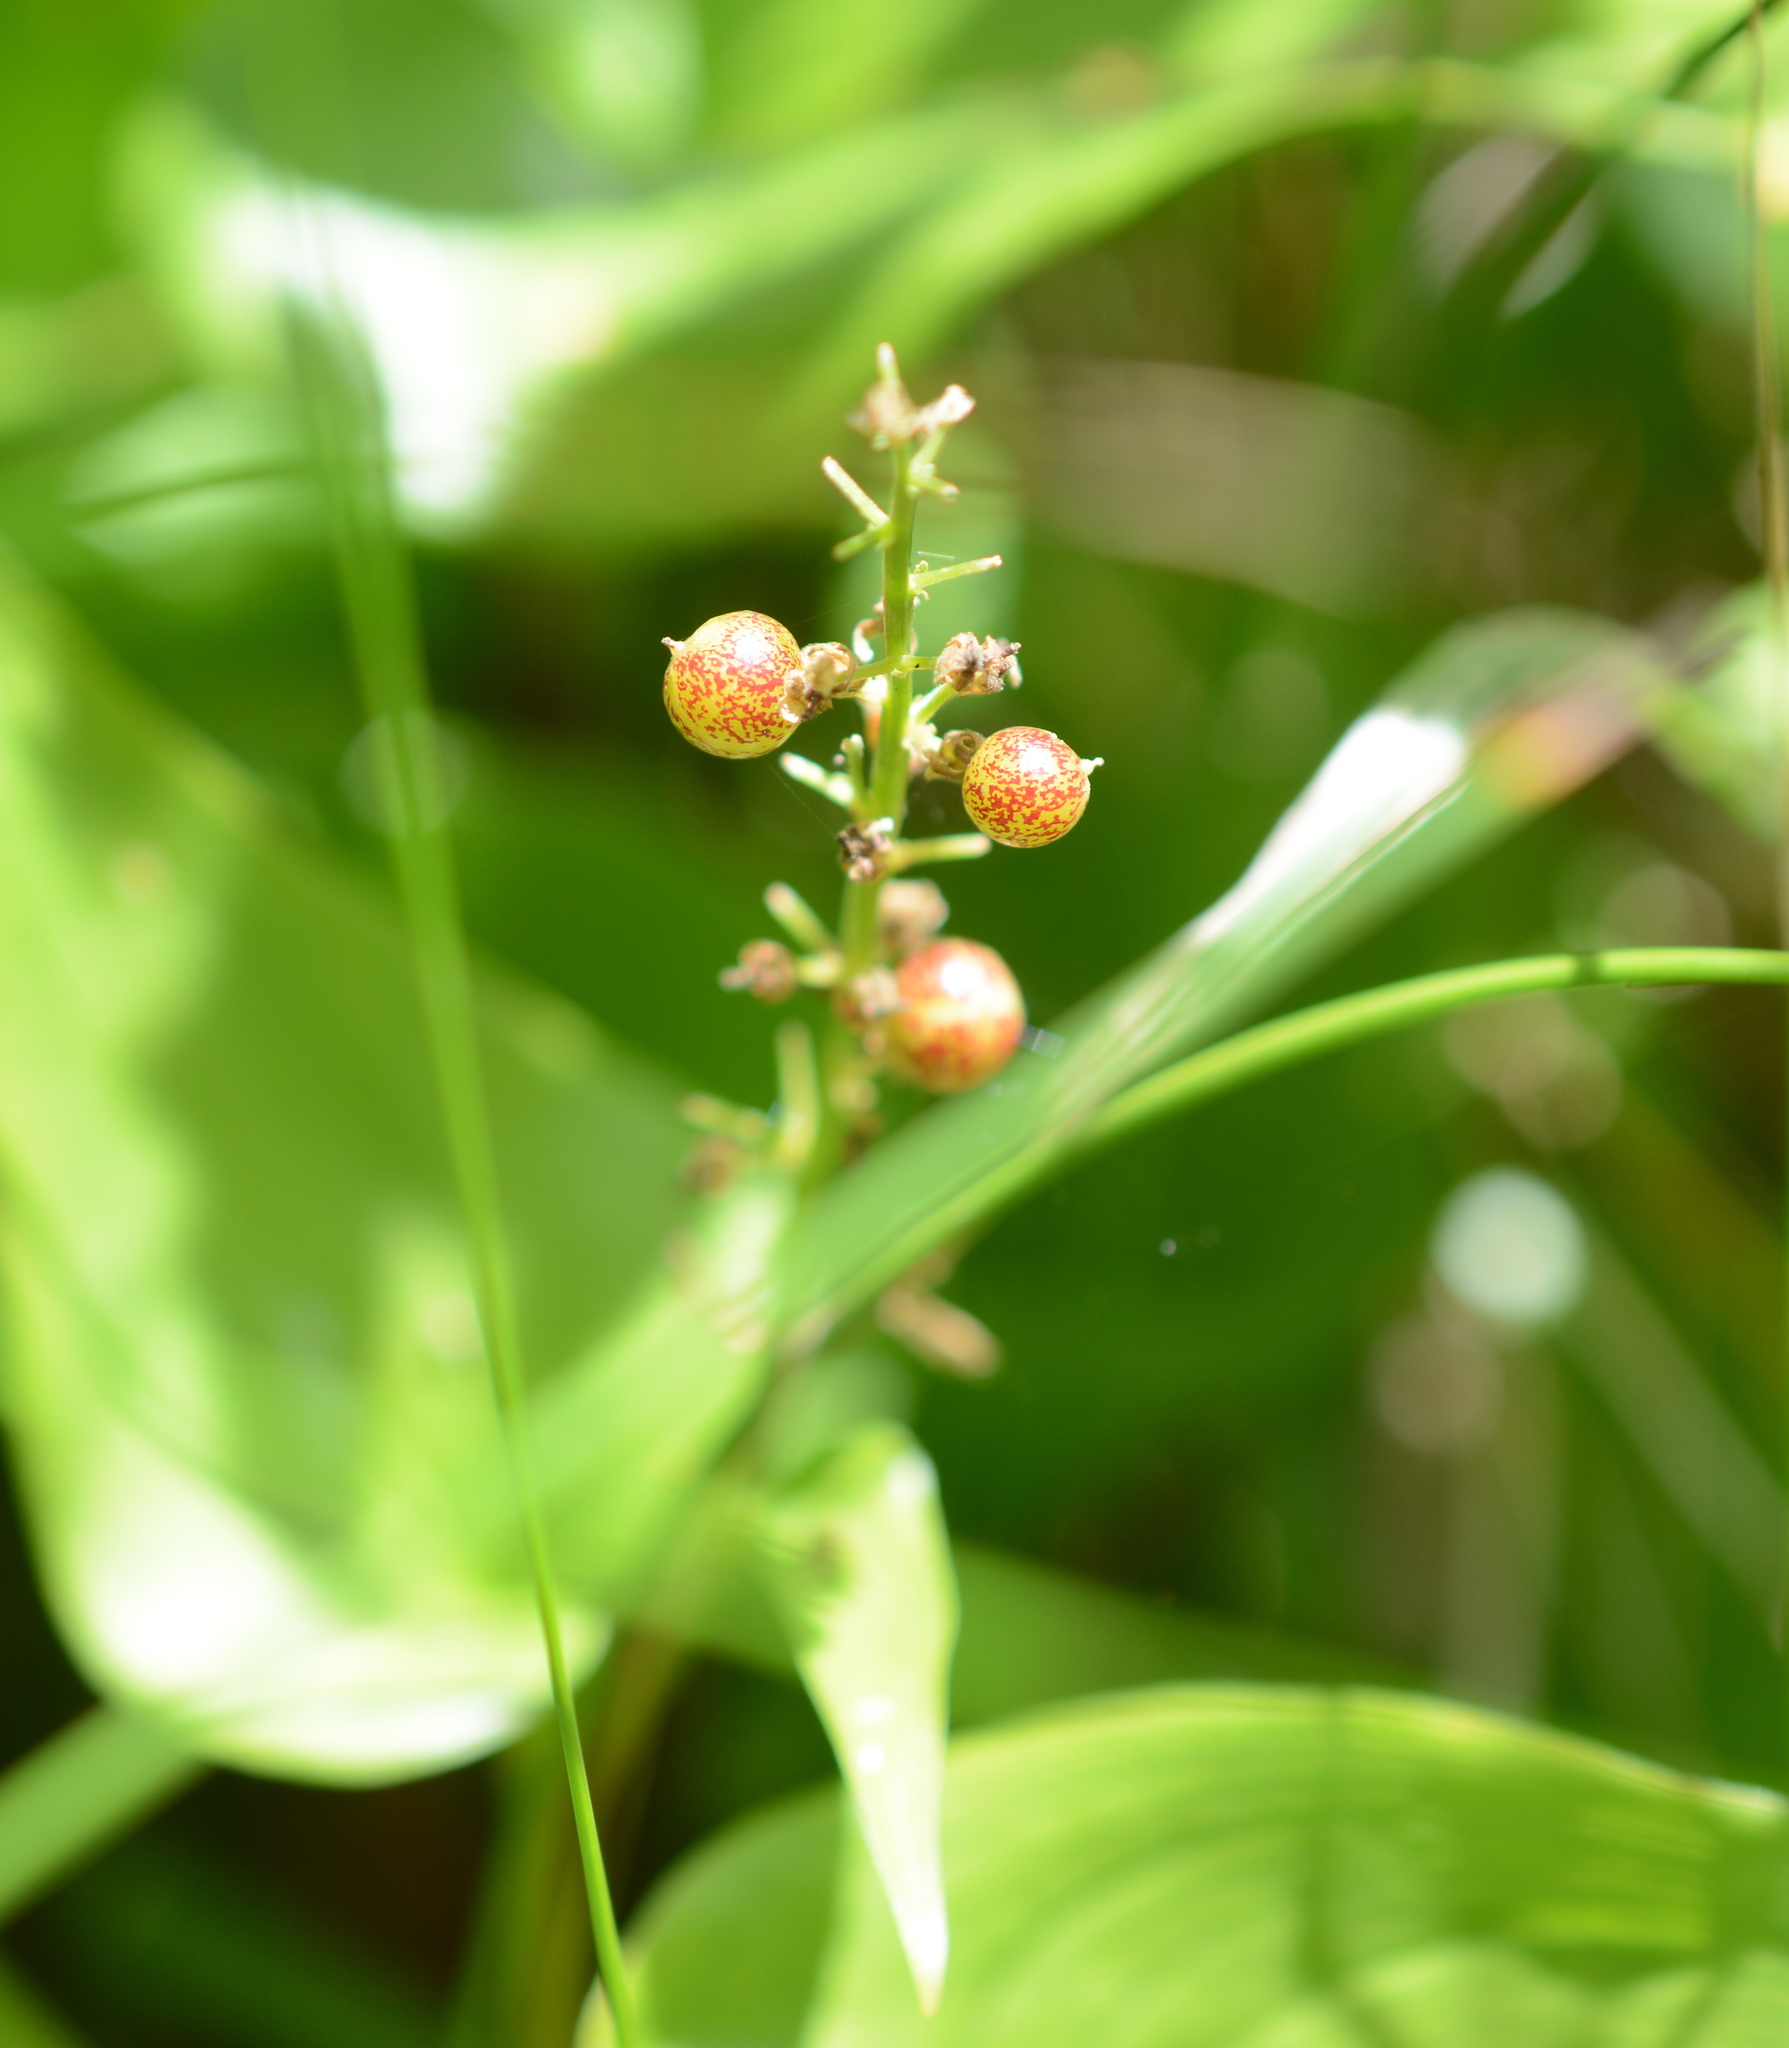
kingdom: Plantae
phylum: Tracheophyta
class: Liliopsida
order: Asparagales
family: Asparagaceae
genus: Maianthemum
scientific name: Maianthemum dilatatum
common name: False lily-of-the-valley
